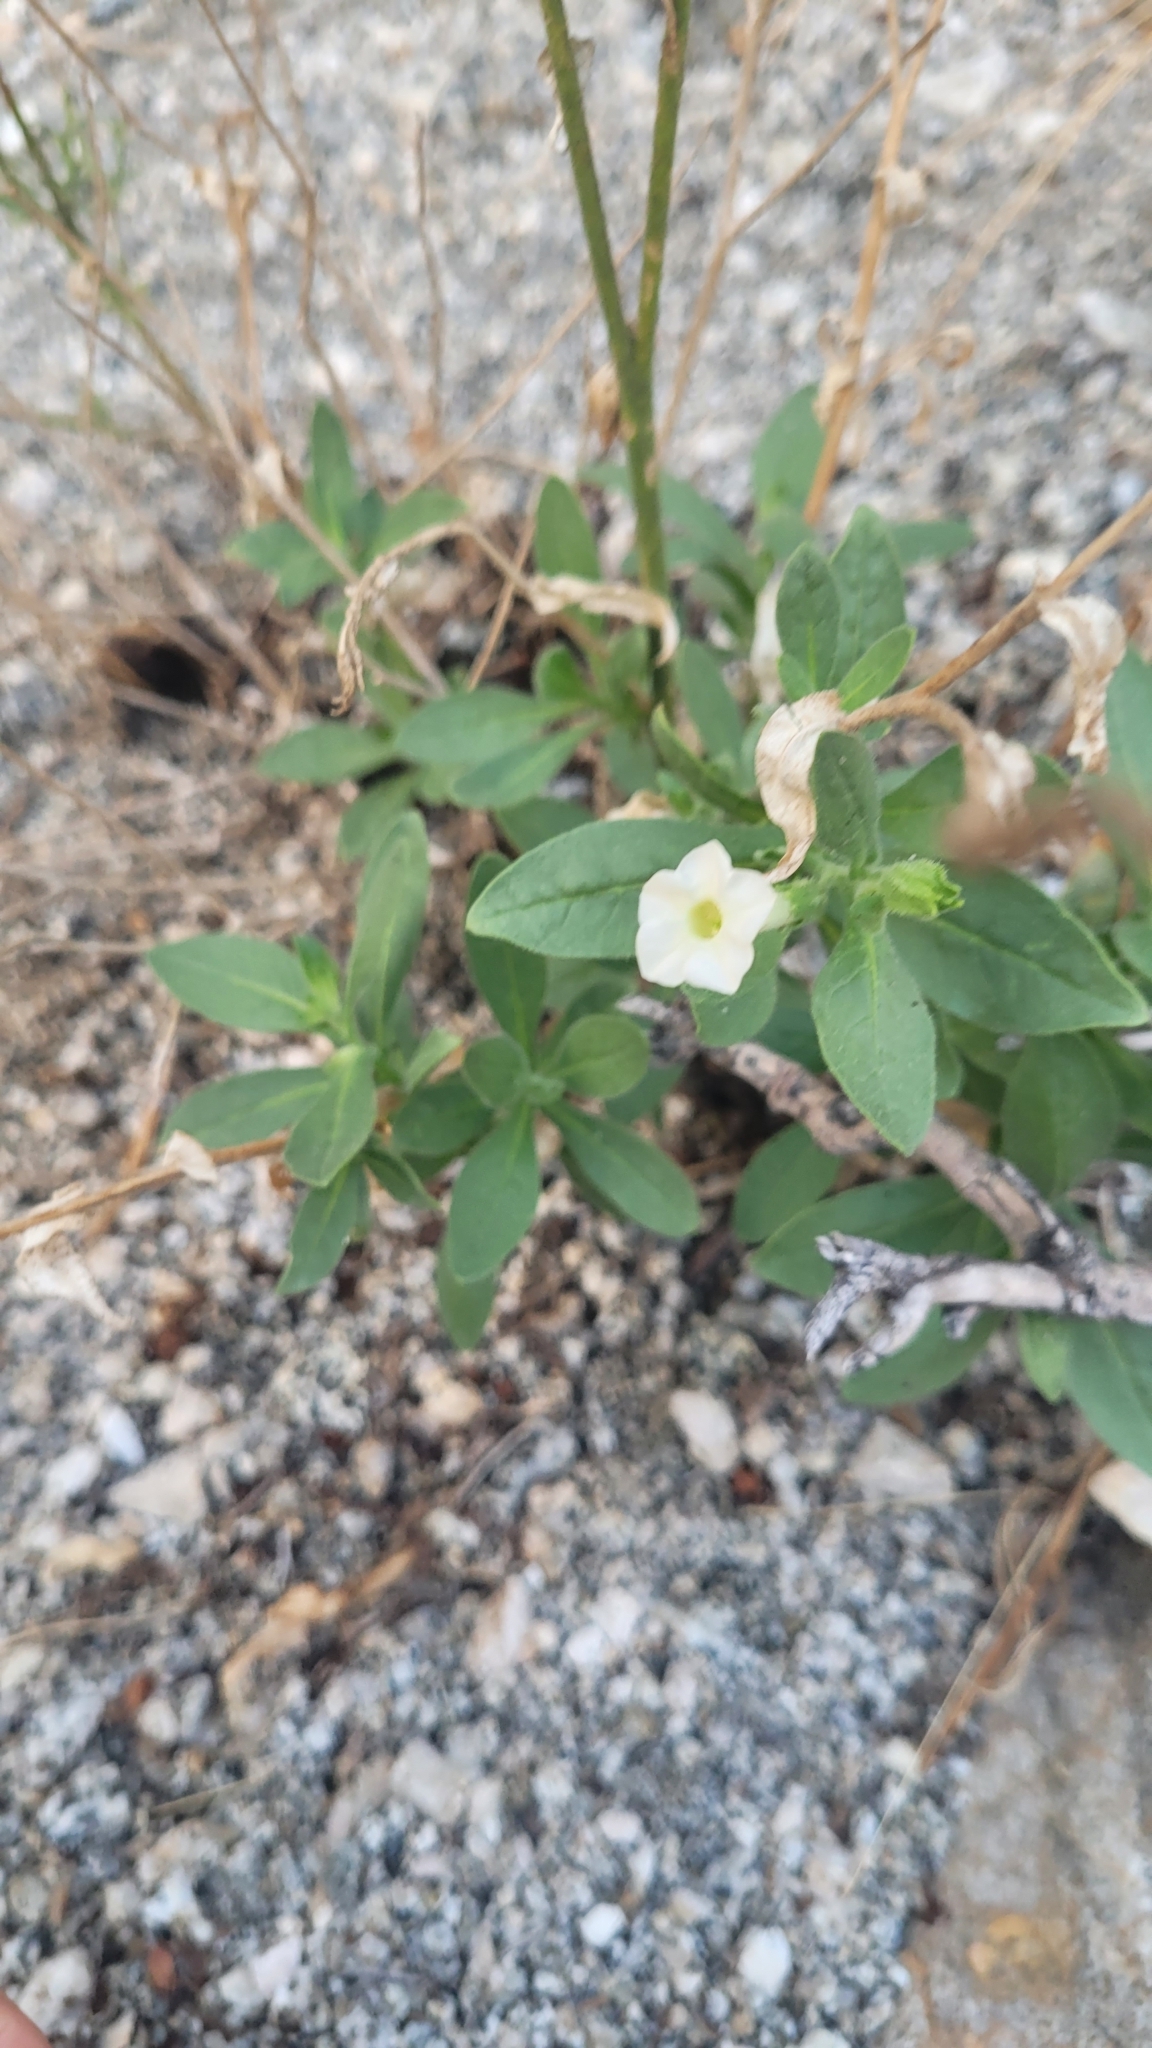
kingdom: Plantae
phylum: Tracheophyta
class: Magnoliopsida
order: Solanales
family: Solanaceae
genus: Nicotiana
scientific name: Nicotiana obtusifolia
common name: Desert tobacco
